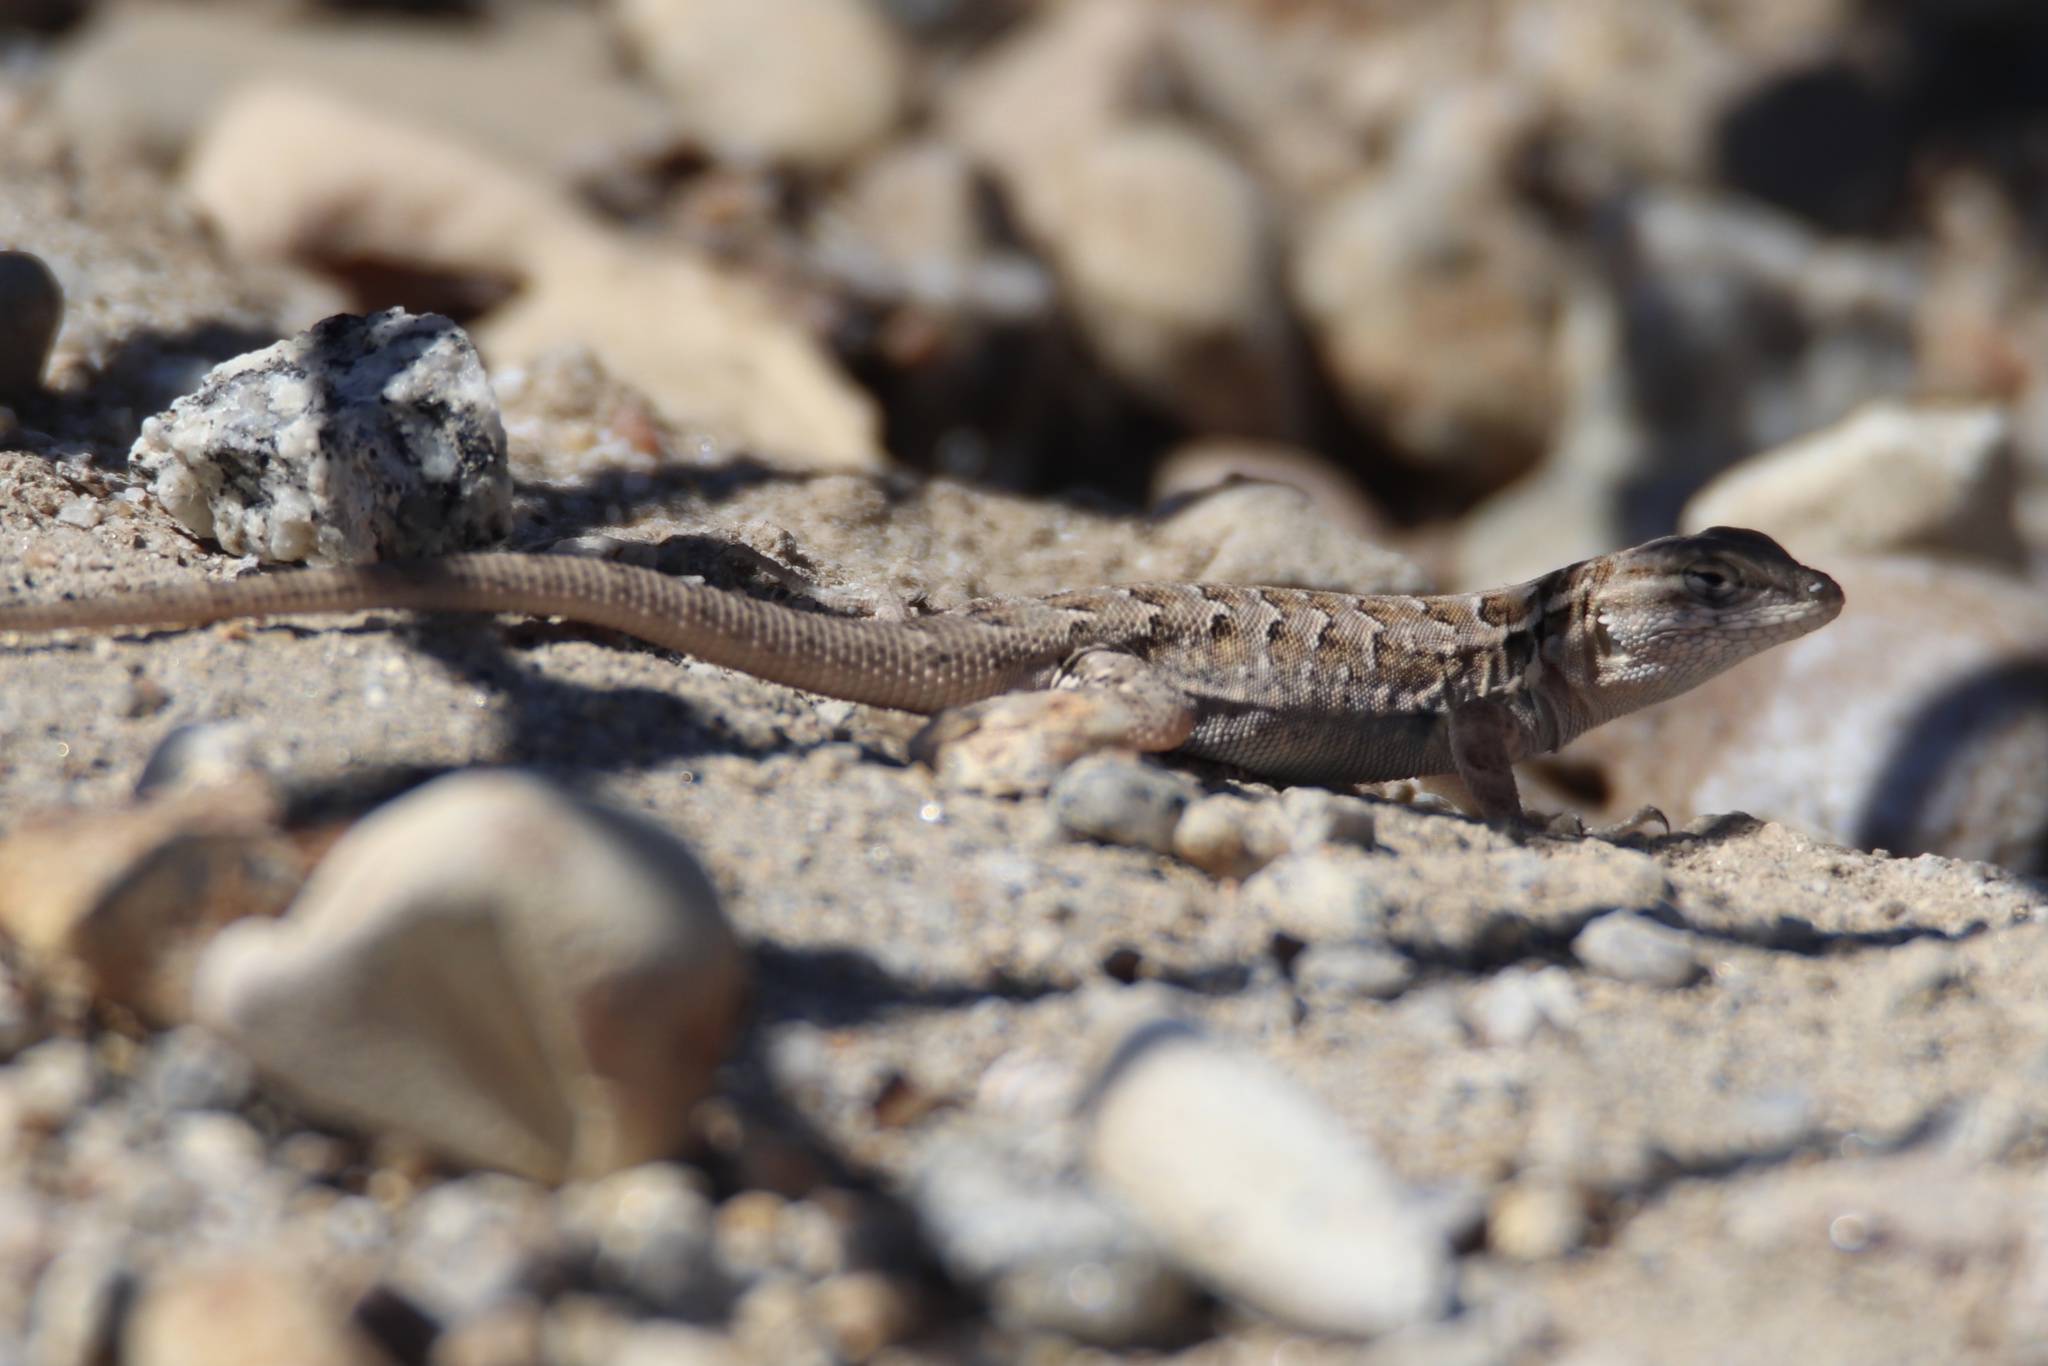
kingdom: Animalia
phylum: Chordata
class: Squamata
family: Phrynosomatidae
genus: Uta
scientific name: Uta stansburiana
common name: Side-blotched lizard
